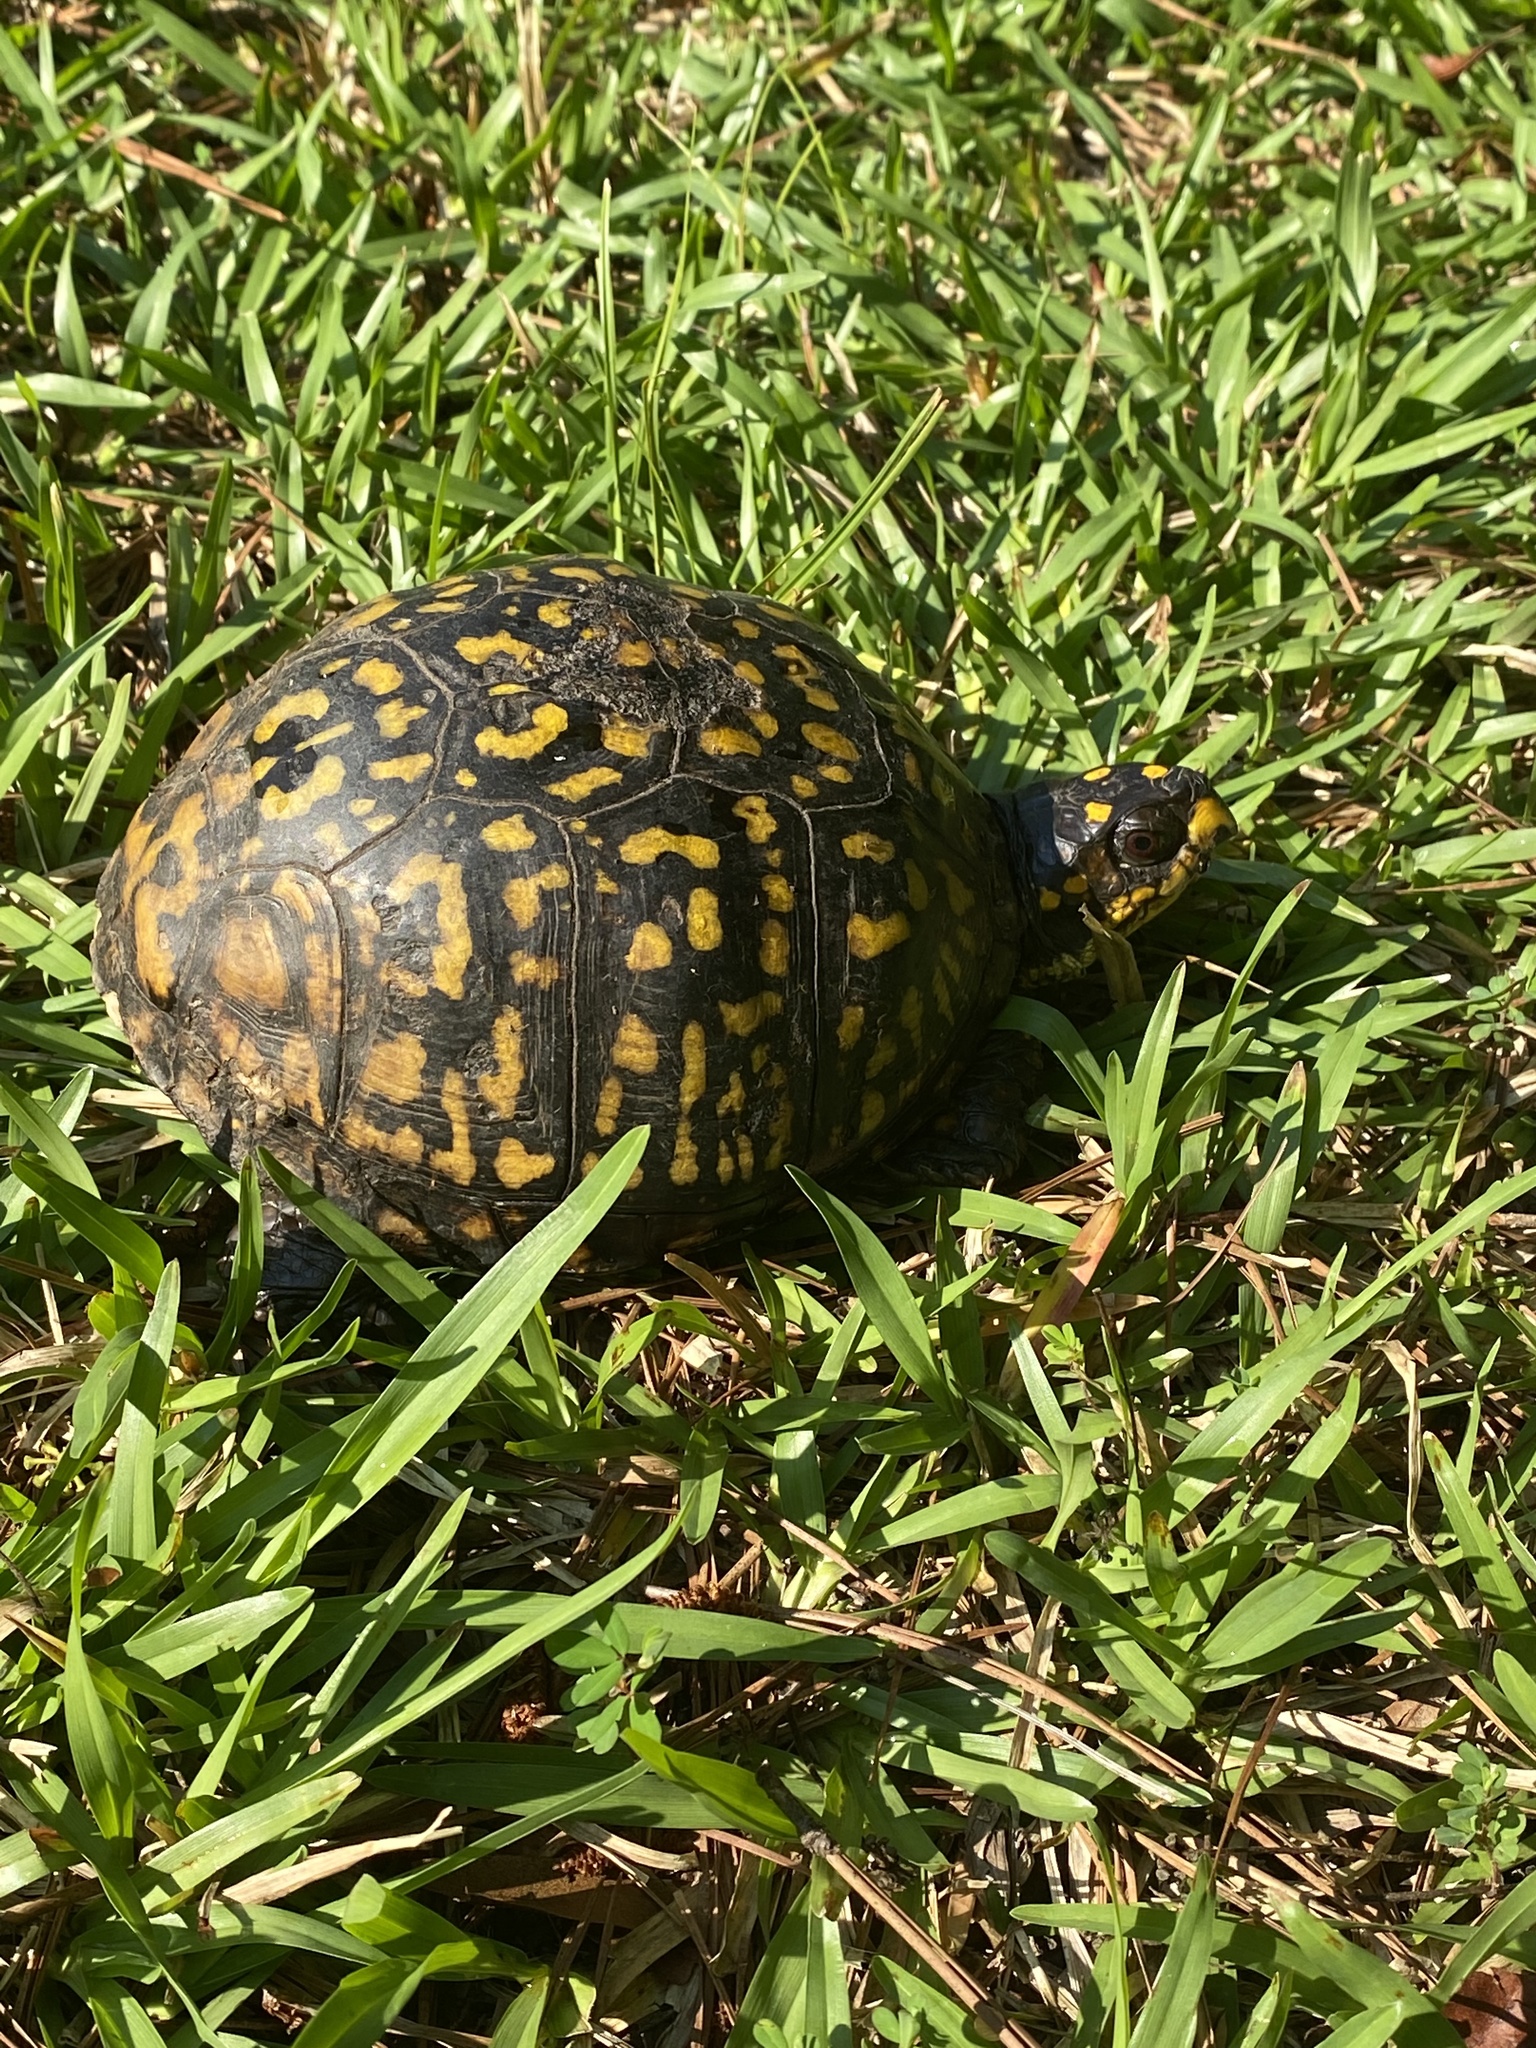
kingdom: Animalia
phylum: Chordata
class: Testudines
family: Emydidae
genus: Terrapene
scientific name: Terrapene carolina
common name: Common box turtle
